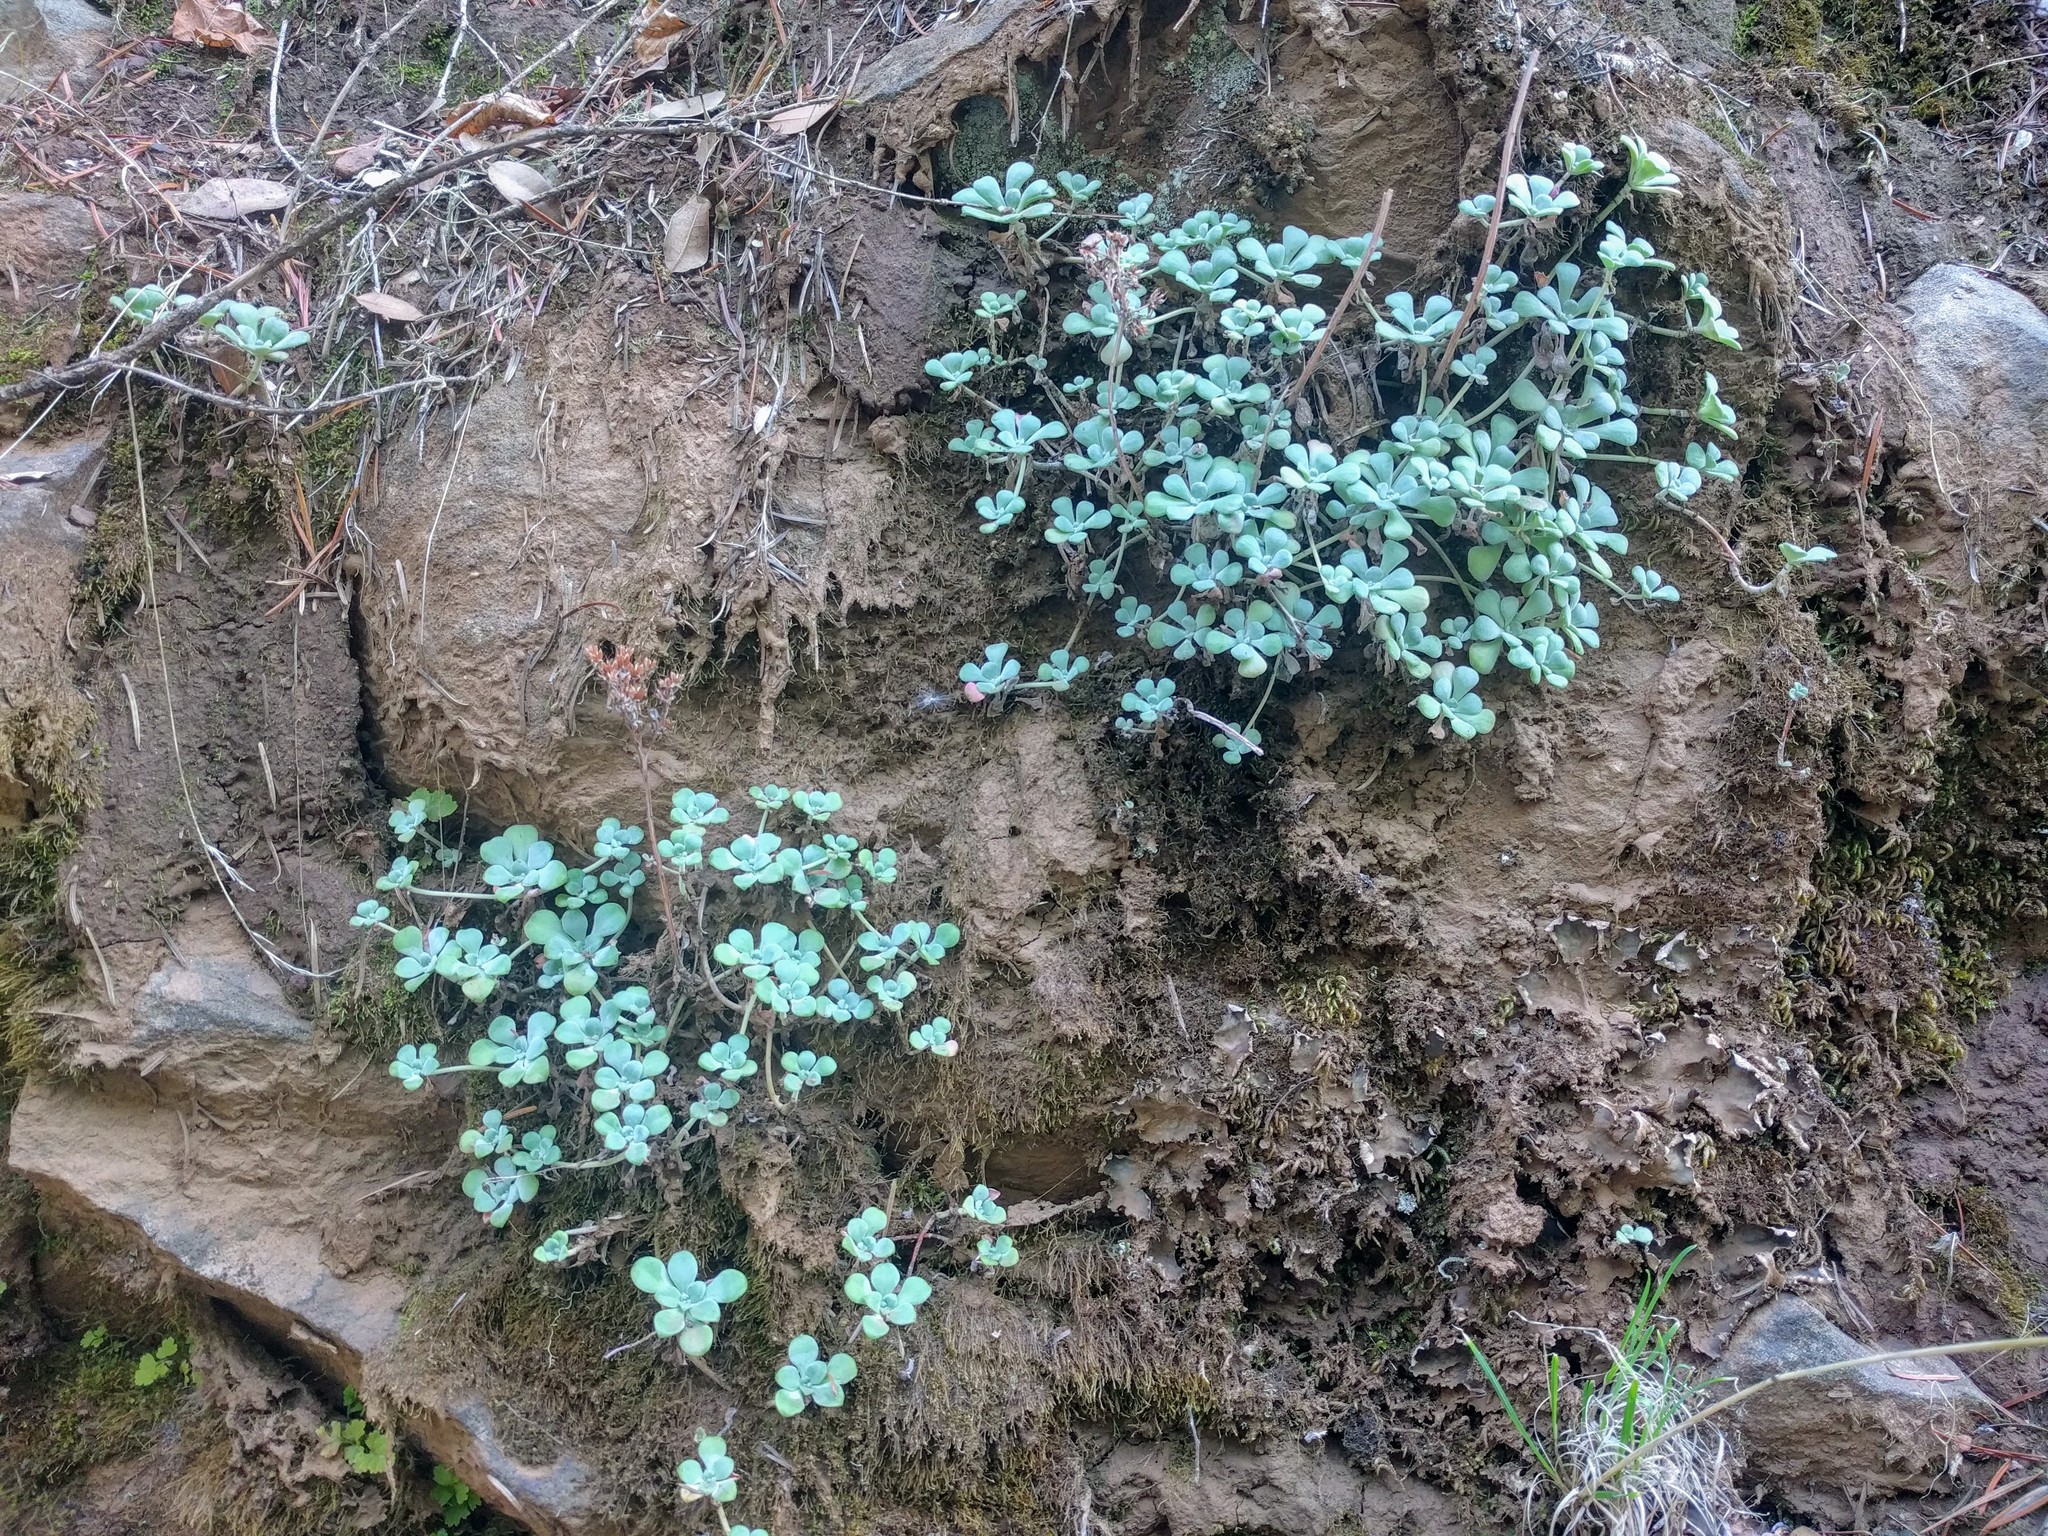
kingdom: Plantae
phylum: Tracheophyta
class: Magnoliopsida
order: Saxifragales
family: Crassulaceae
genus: Sedum
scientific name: Sedum spathulifolium
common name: Colorado stonecrop
